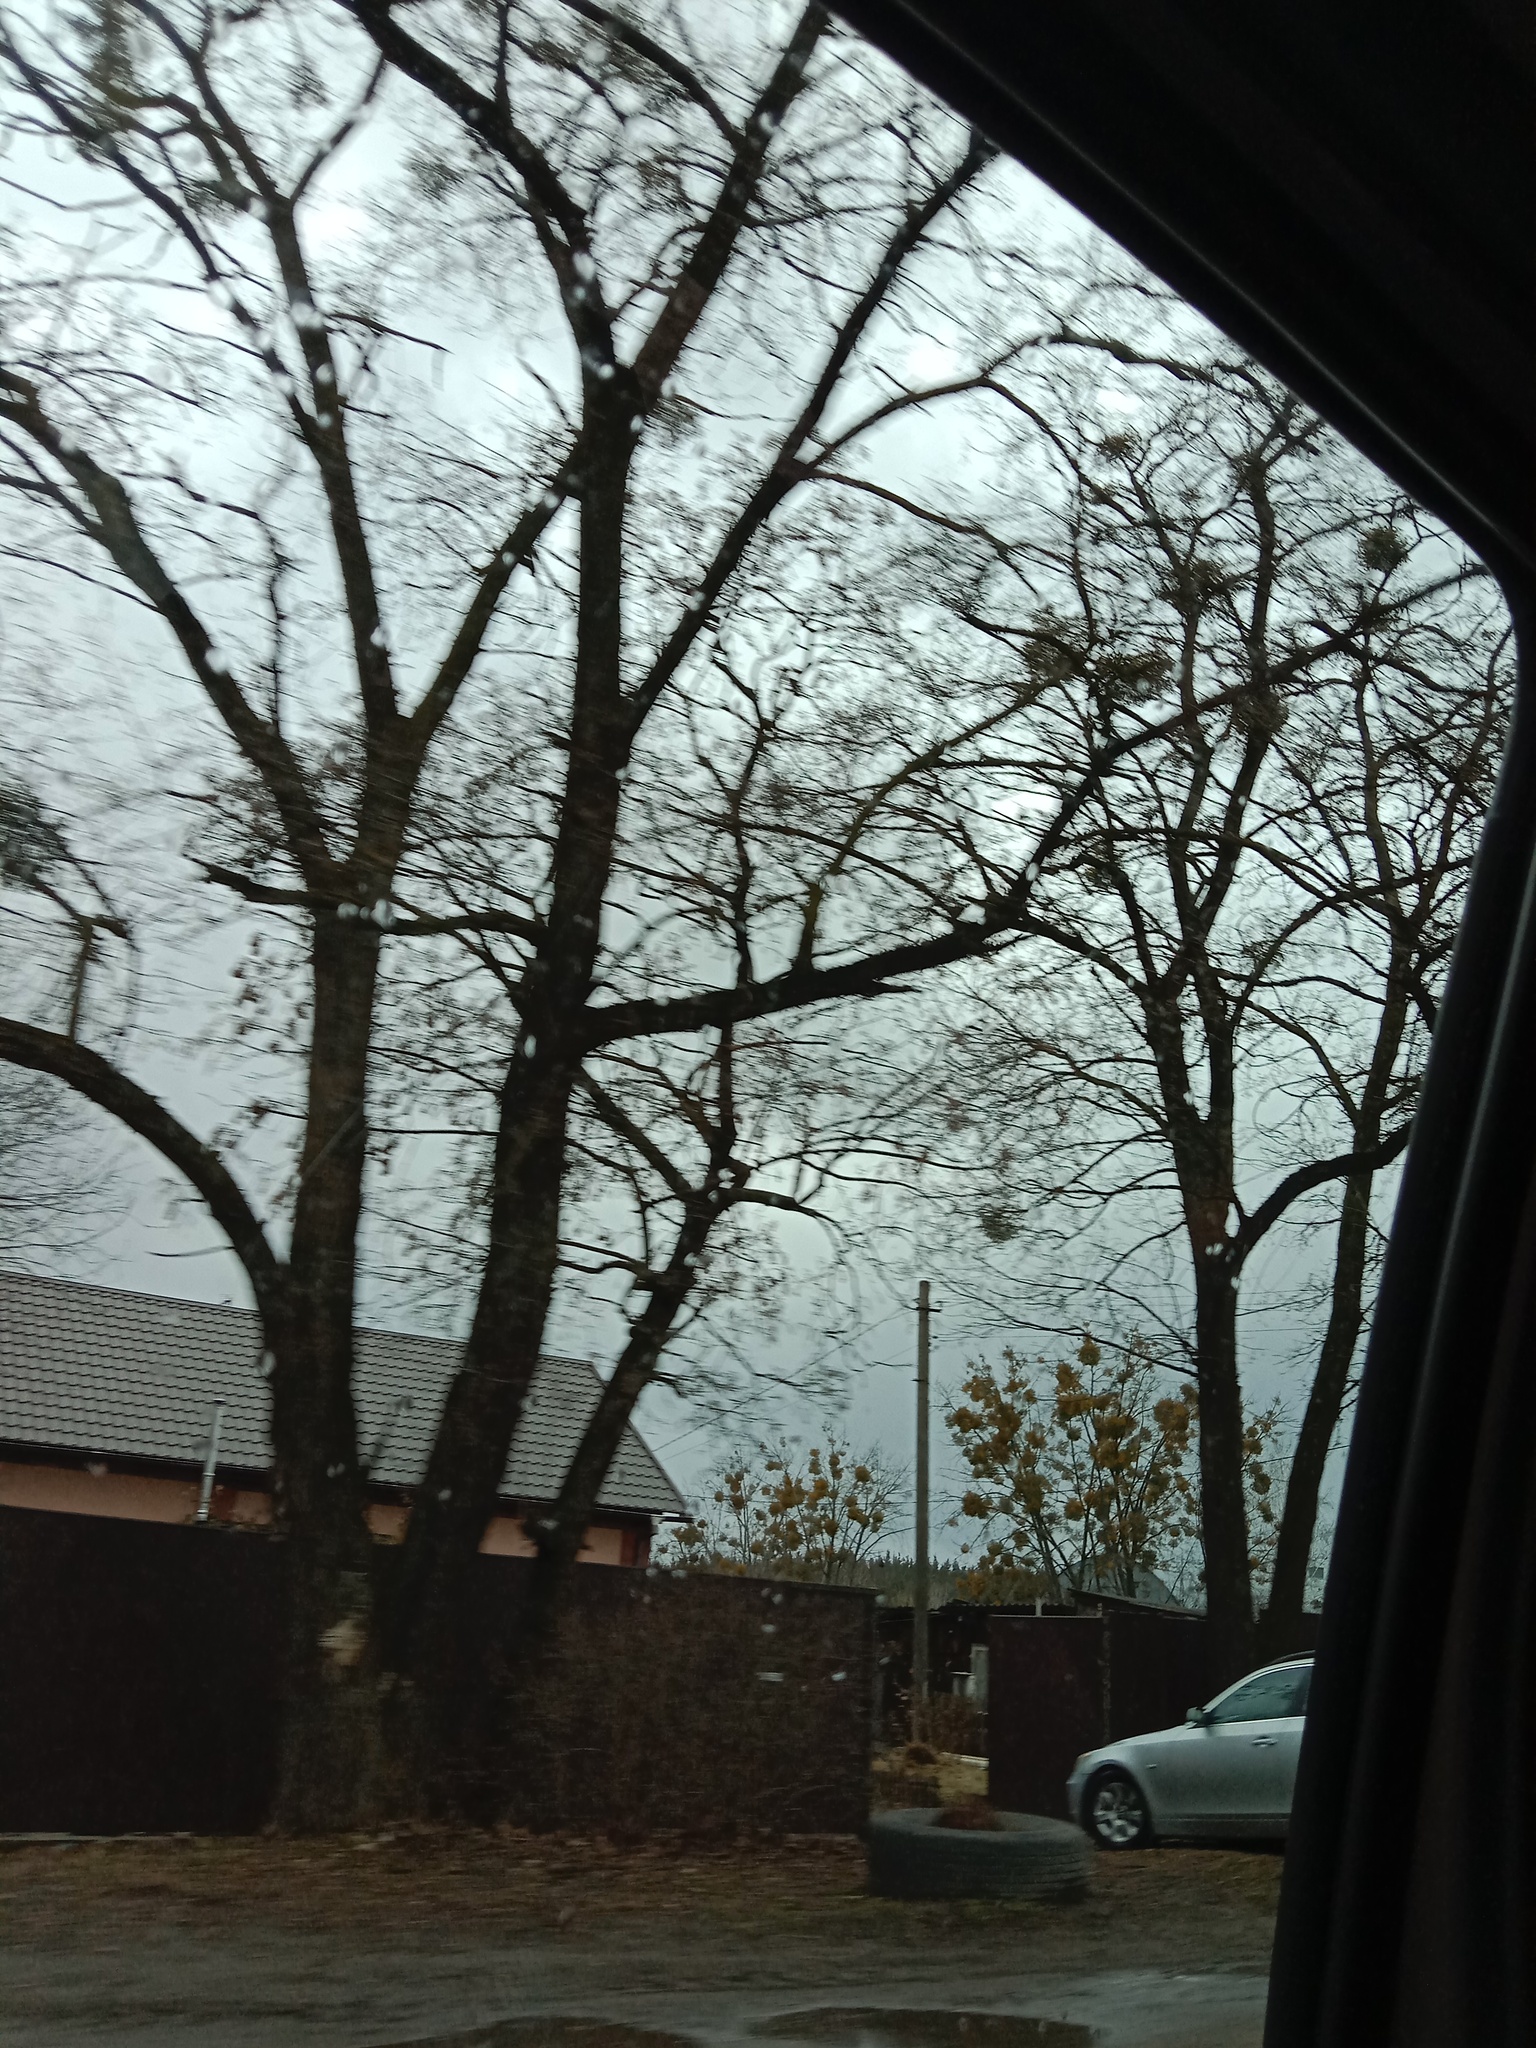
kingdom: Plantae
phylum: Tracheophyta
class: Magnoliopsida
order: Santalales
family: Viscaceae
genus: Viscum
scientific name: Viscum album
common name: Mistletoe
